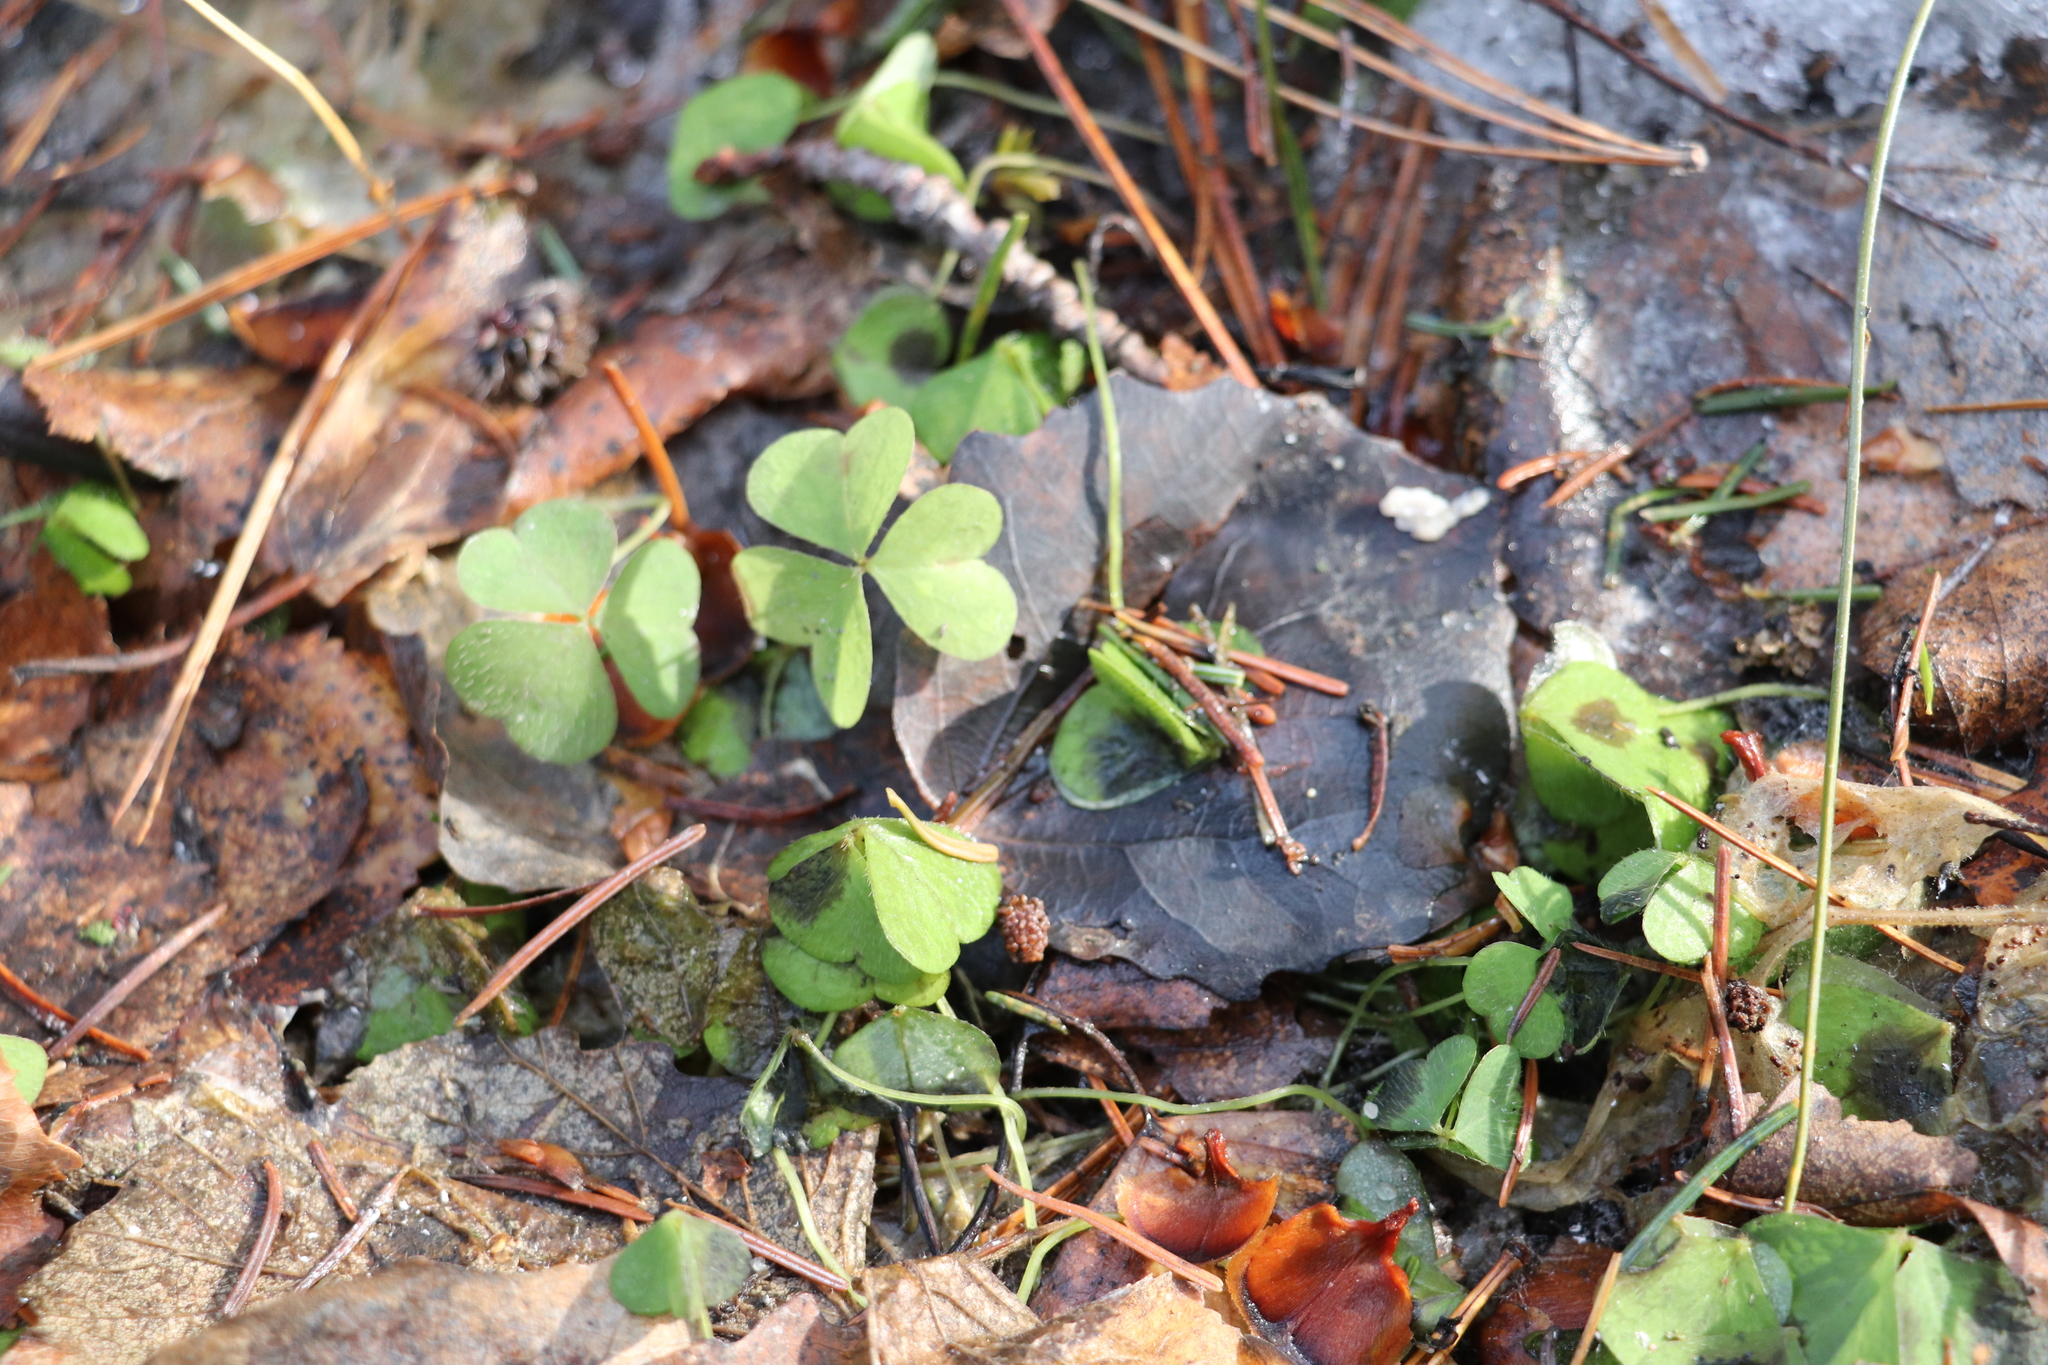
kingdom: Plantae
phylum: Tracheophyta
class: Magnoliopsida
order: Oxalidales
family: Oxalidaceae
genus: Oxalis
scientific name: Oxalis acetosella
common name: Wood-sorrel
